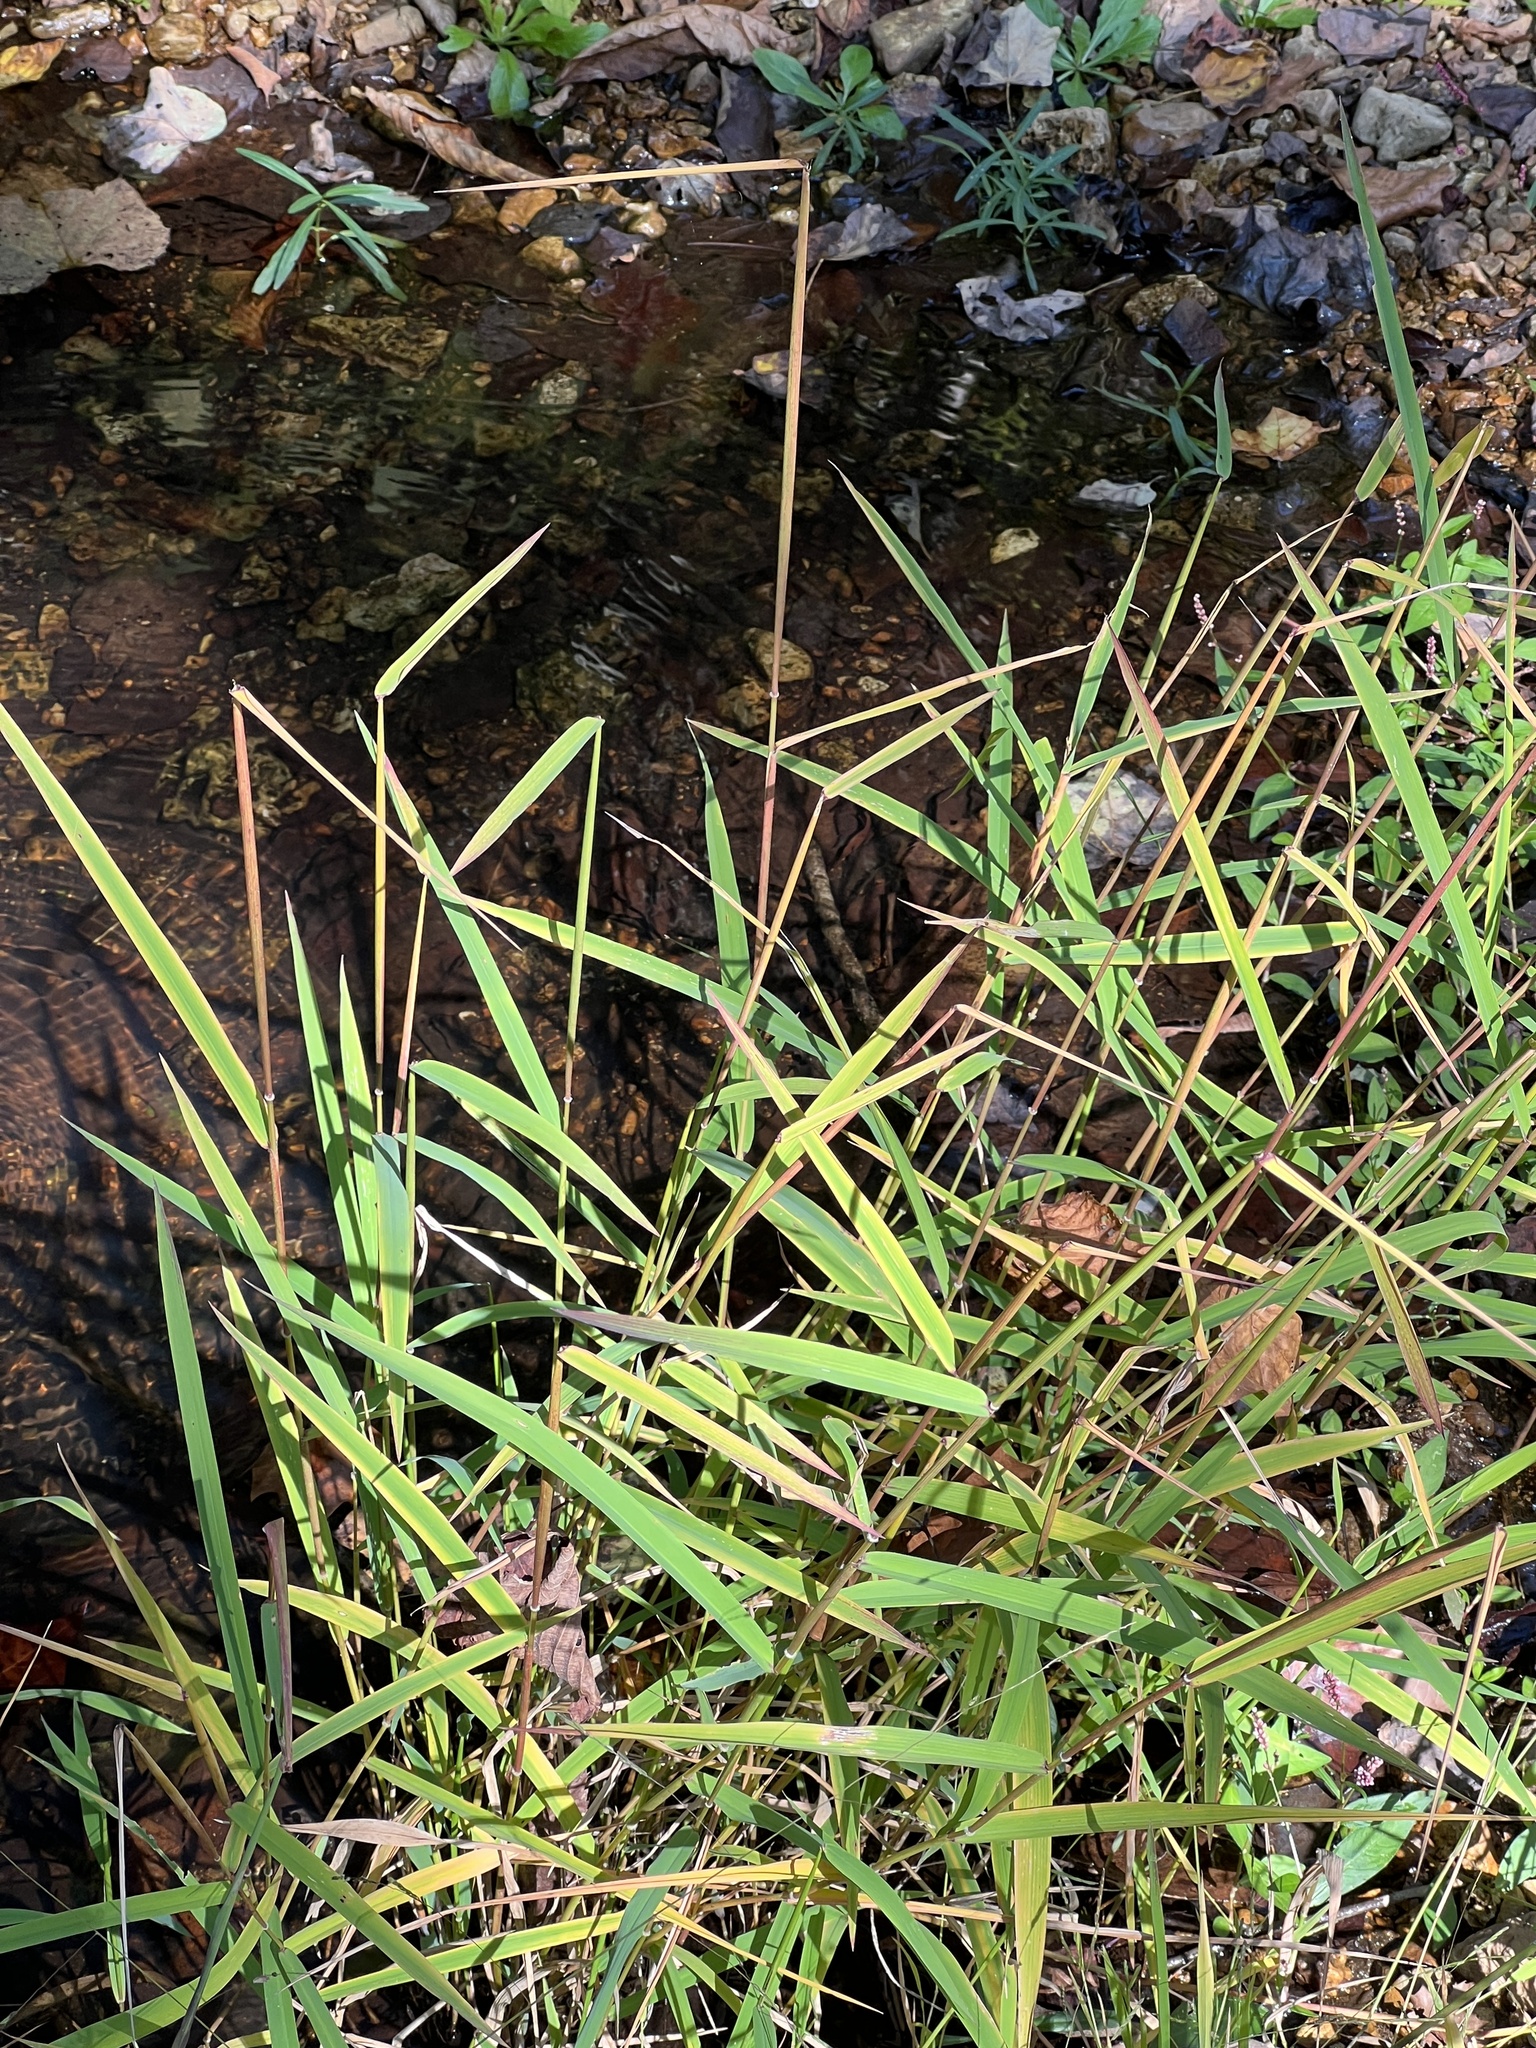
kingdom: Plantae
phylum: Tracheophyta
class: Liliopsida
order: Poales
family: Poaceae
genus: Leersia
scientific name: Leersia oryzoides
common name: Cut-grass
